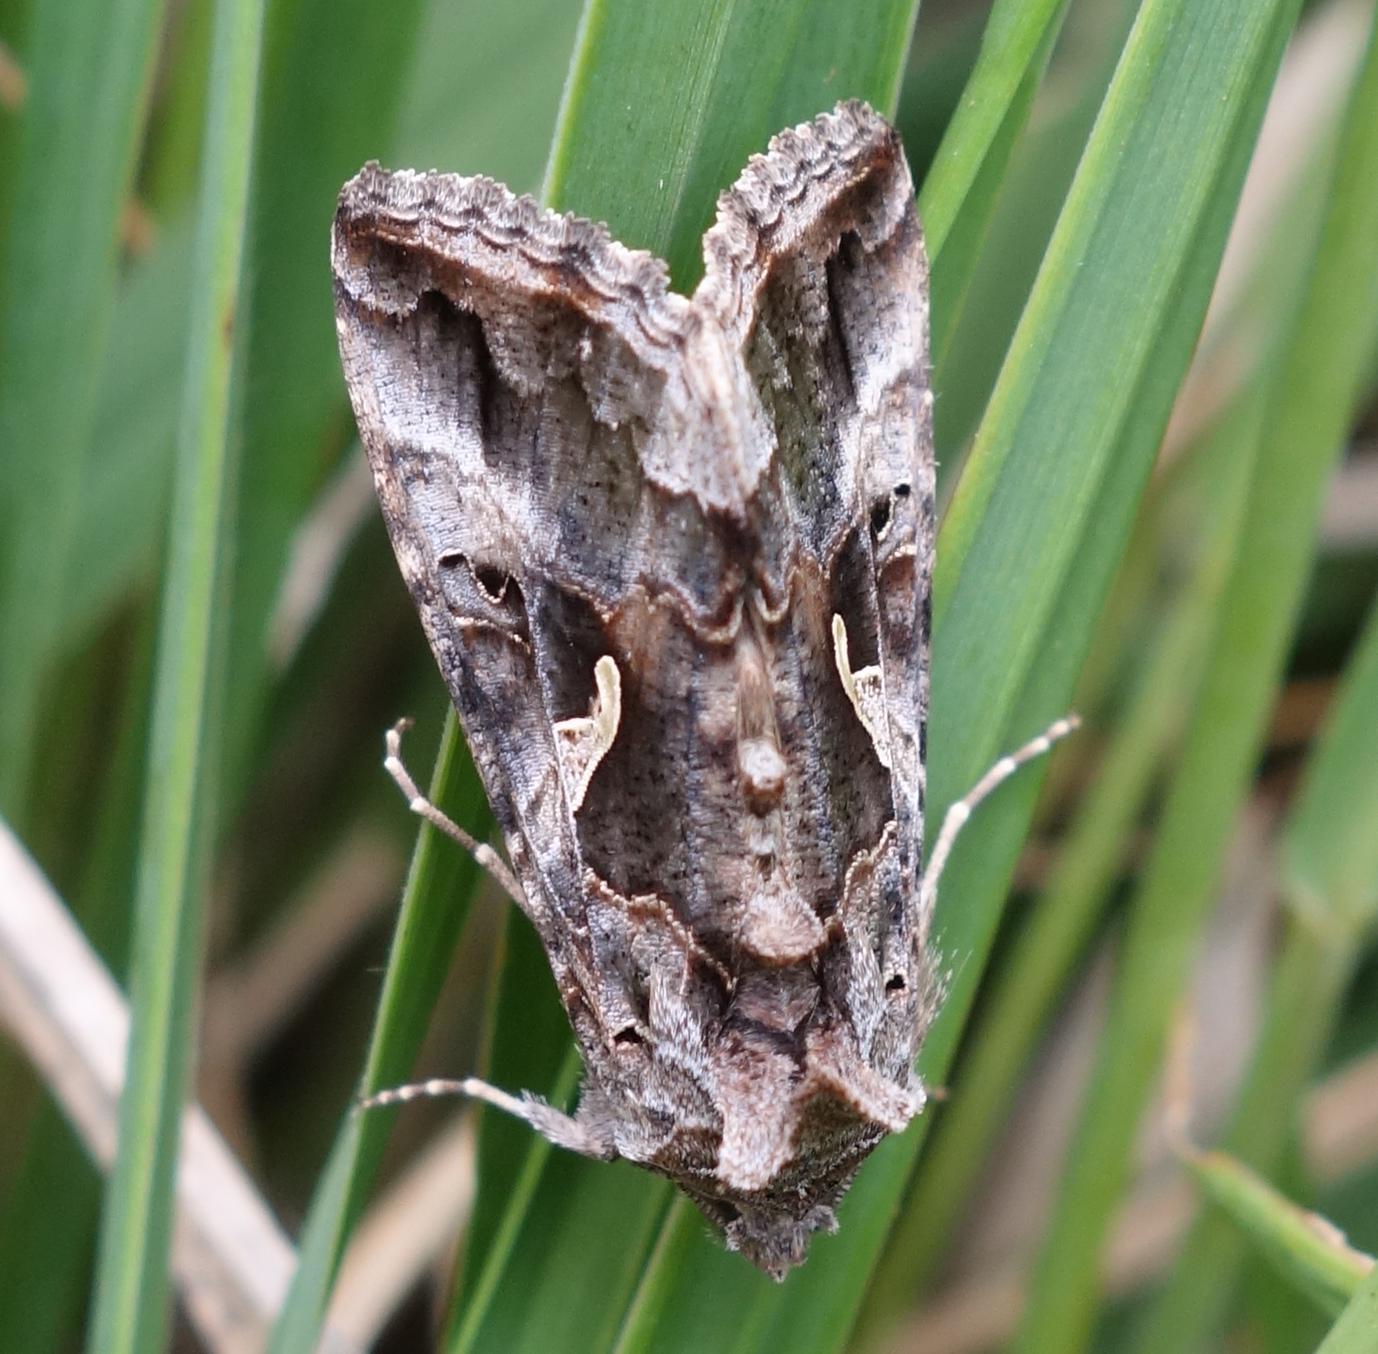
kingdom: Animalia
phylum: Arthropoda
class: Insecta
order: Lepidoptera
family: Noctuidae
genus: Autographa
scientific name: Autographa gamma
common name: Silver y
